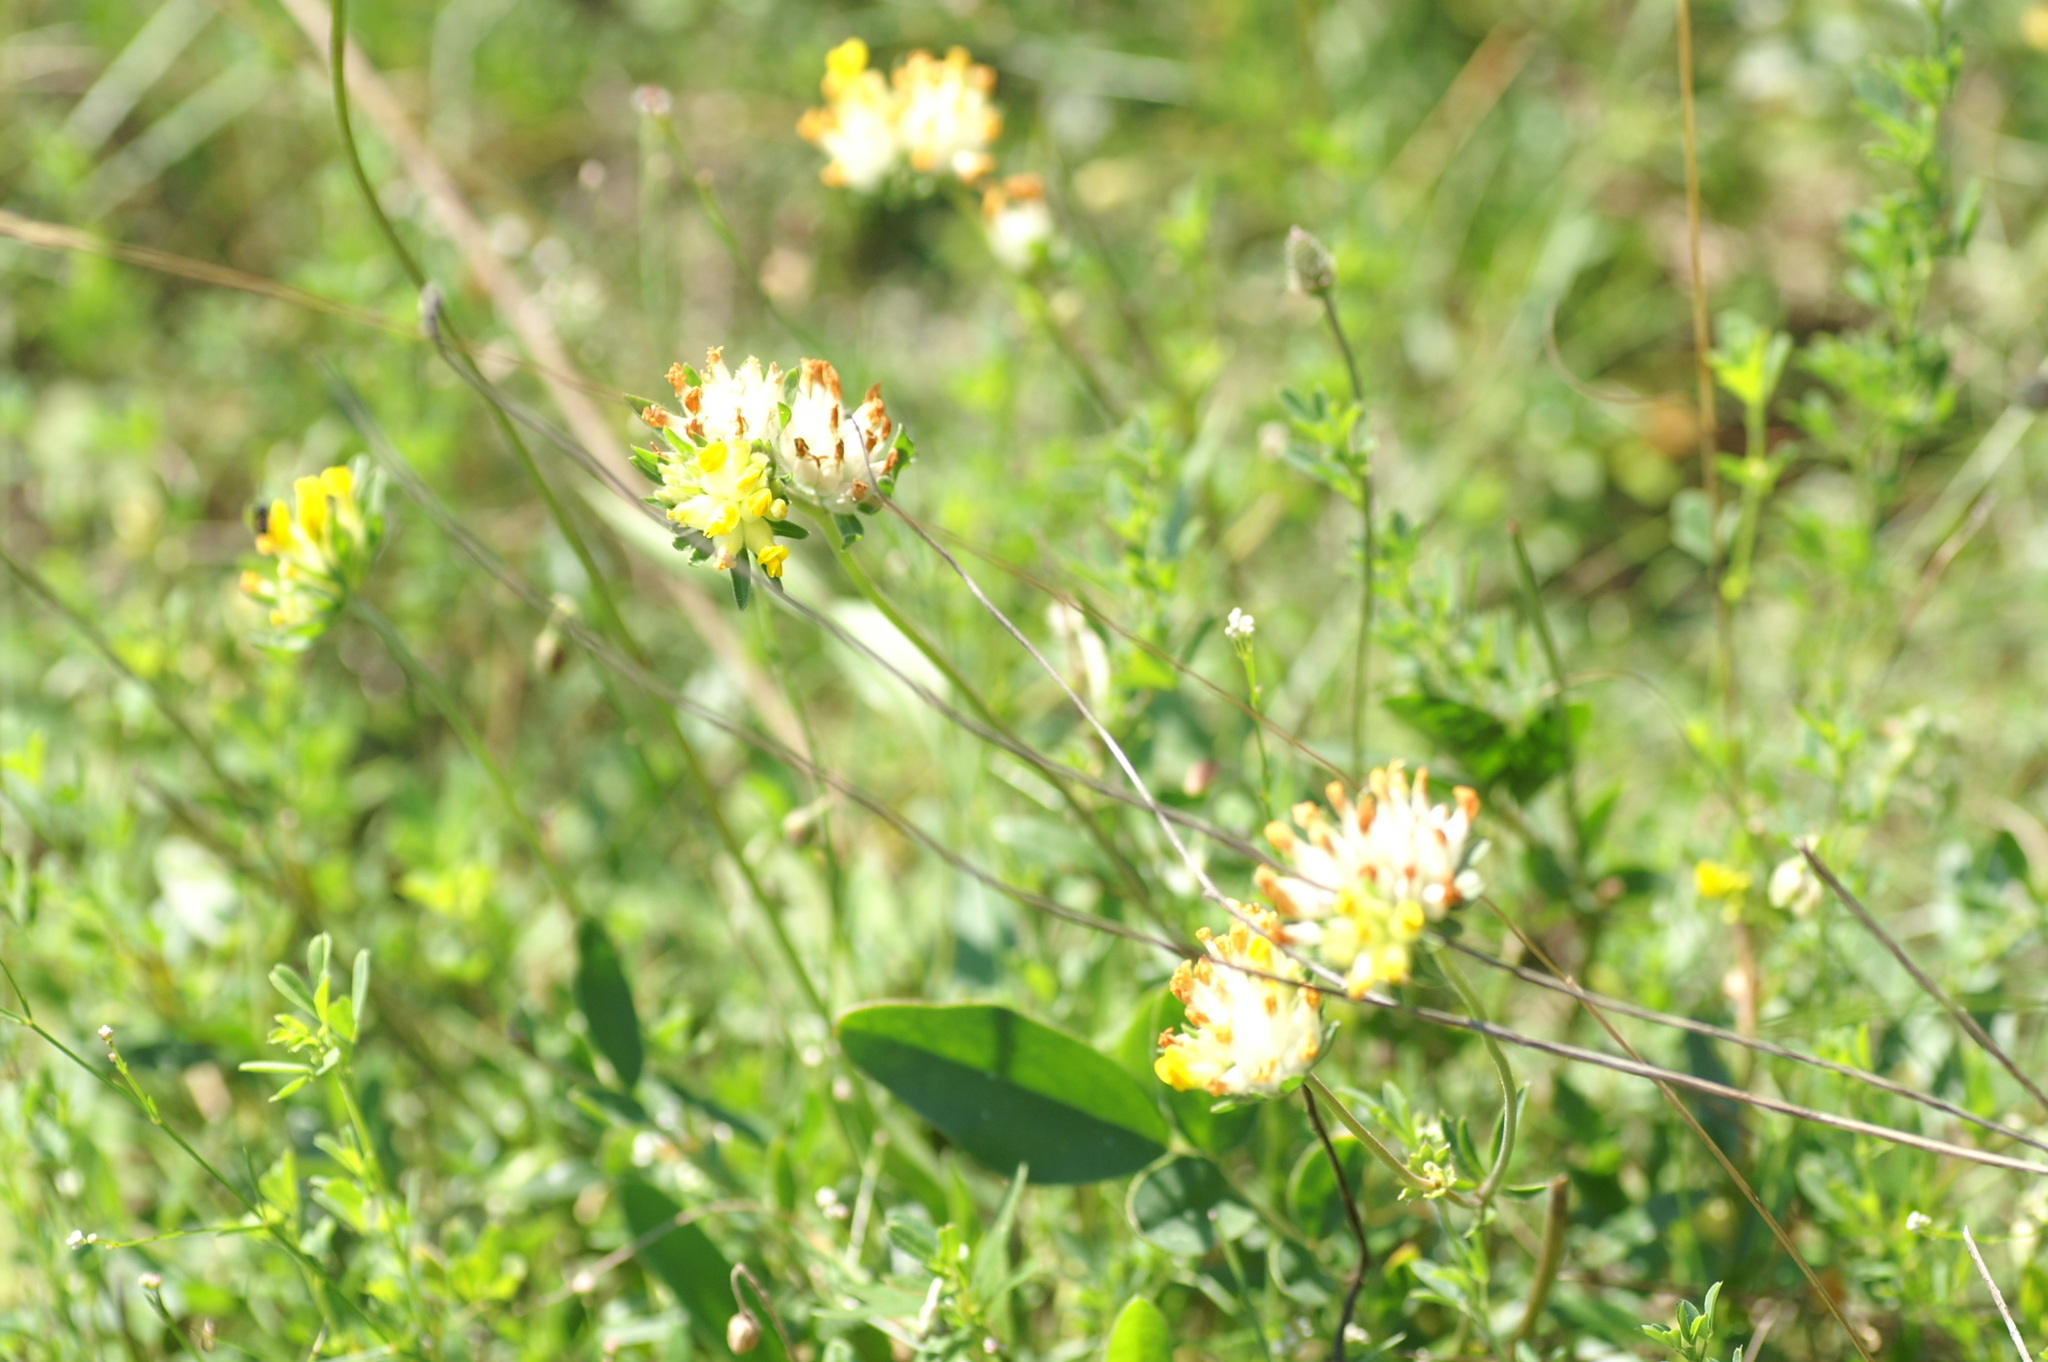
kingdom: Plantae
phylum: Tracheophyta
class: Magnoliopsida
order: Fabales
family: Fabaceae
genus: Anthyllis
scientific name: Anthyllis vulneraria
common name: Kidney vetch
